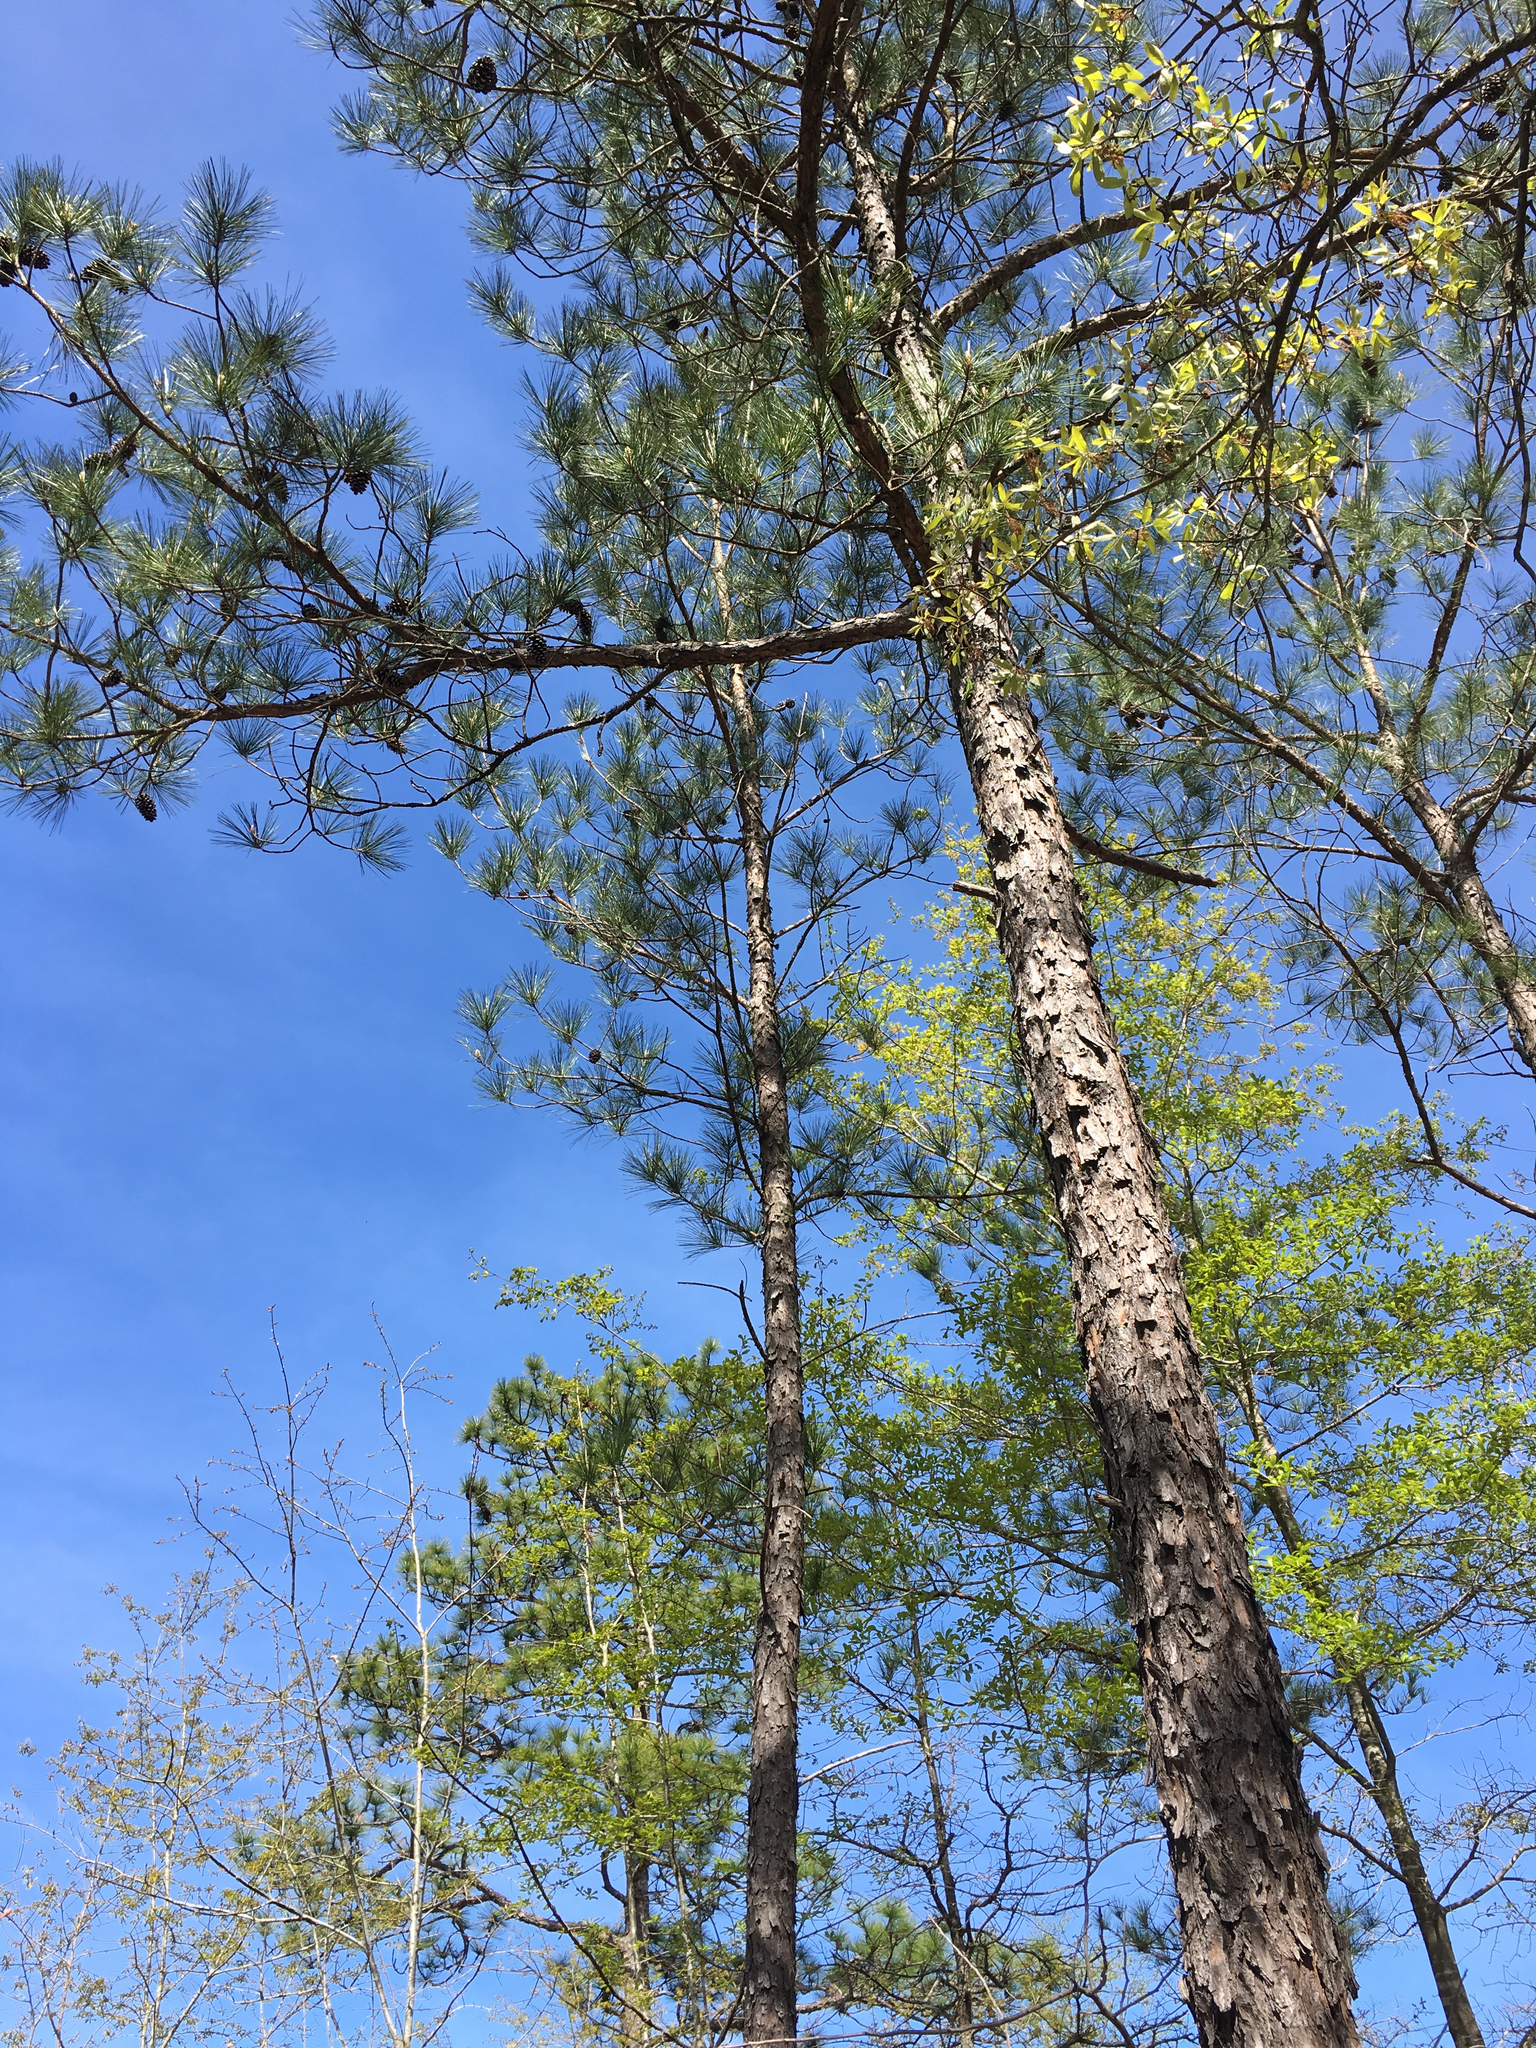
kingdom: Plantae
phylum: Tracheophyta
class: Pinopsida
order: Pinales
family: Pinaceae
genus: Pinus
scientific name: Pinus taeda
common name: Loblolly pine
